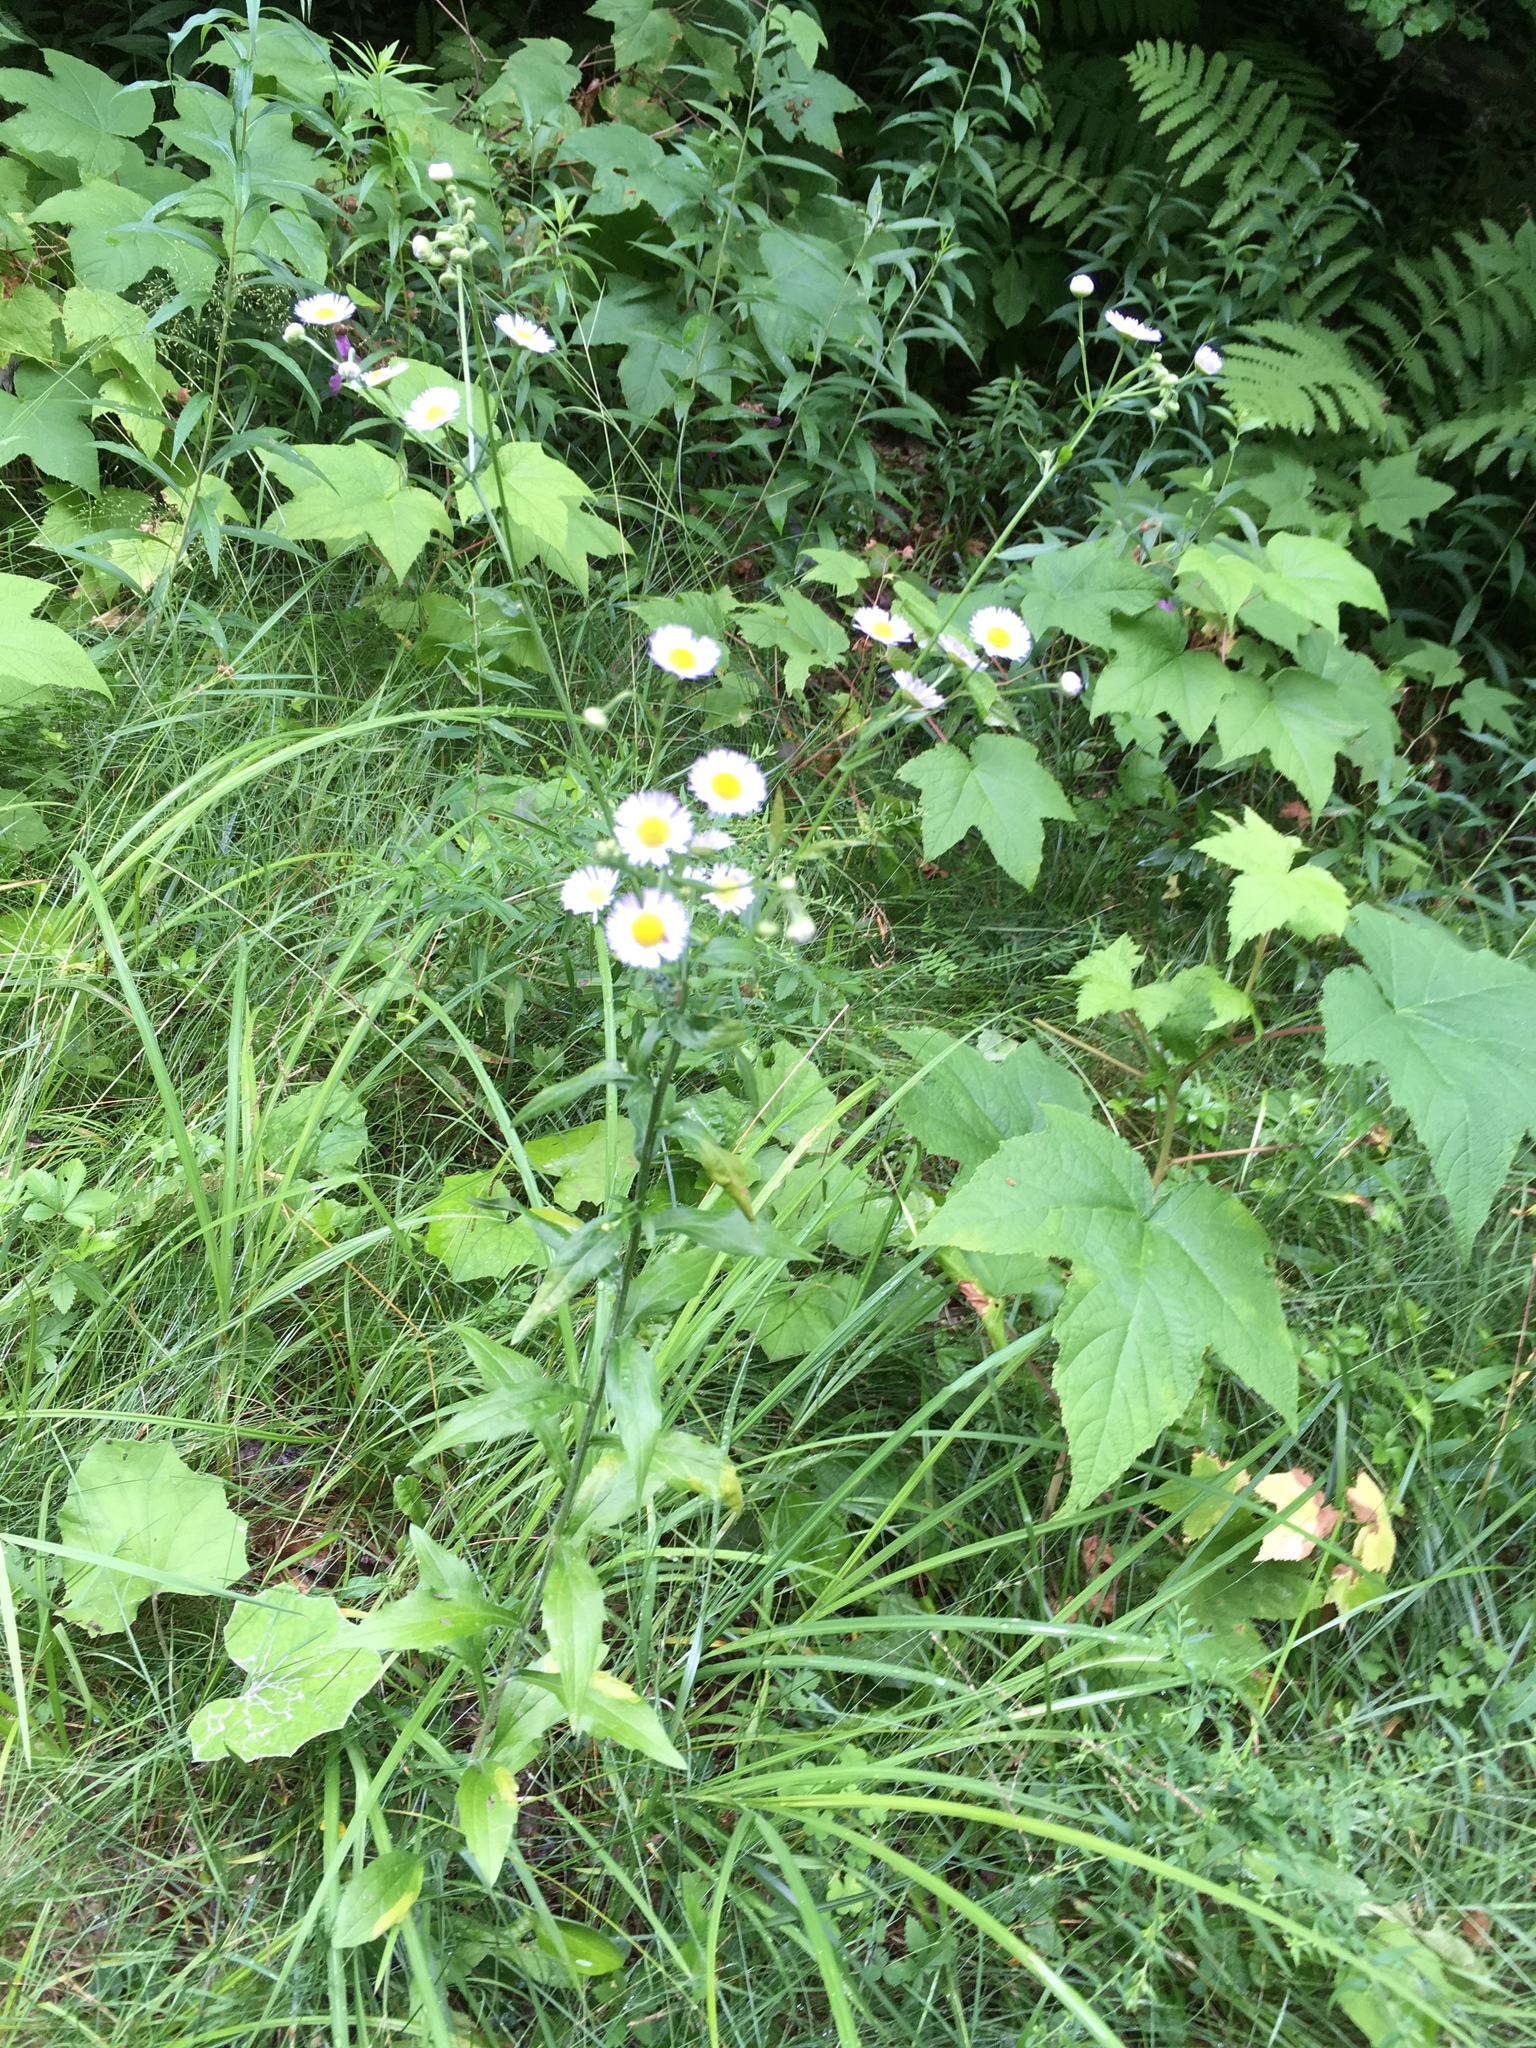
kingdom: Plantae
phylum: Tracheophyta
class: Magnoliopsida
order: Asterales
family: Asteraceae
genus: Erigeron
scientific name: Erigeron annuus
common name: Tall fleabane
